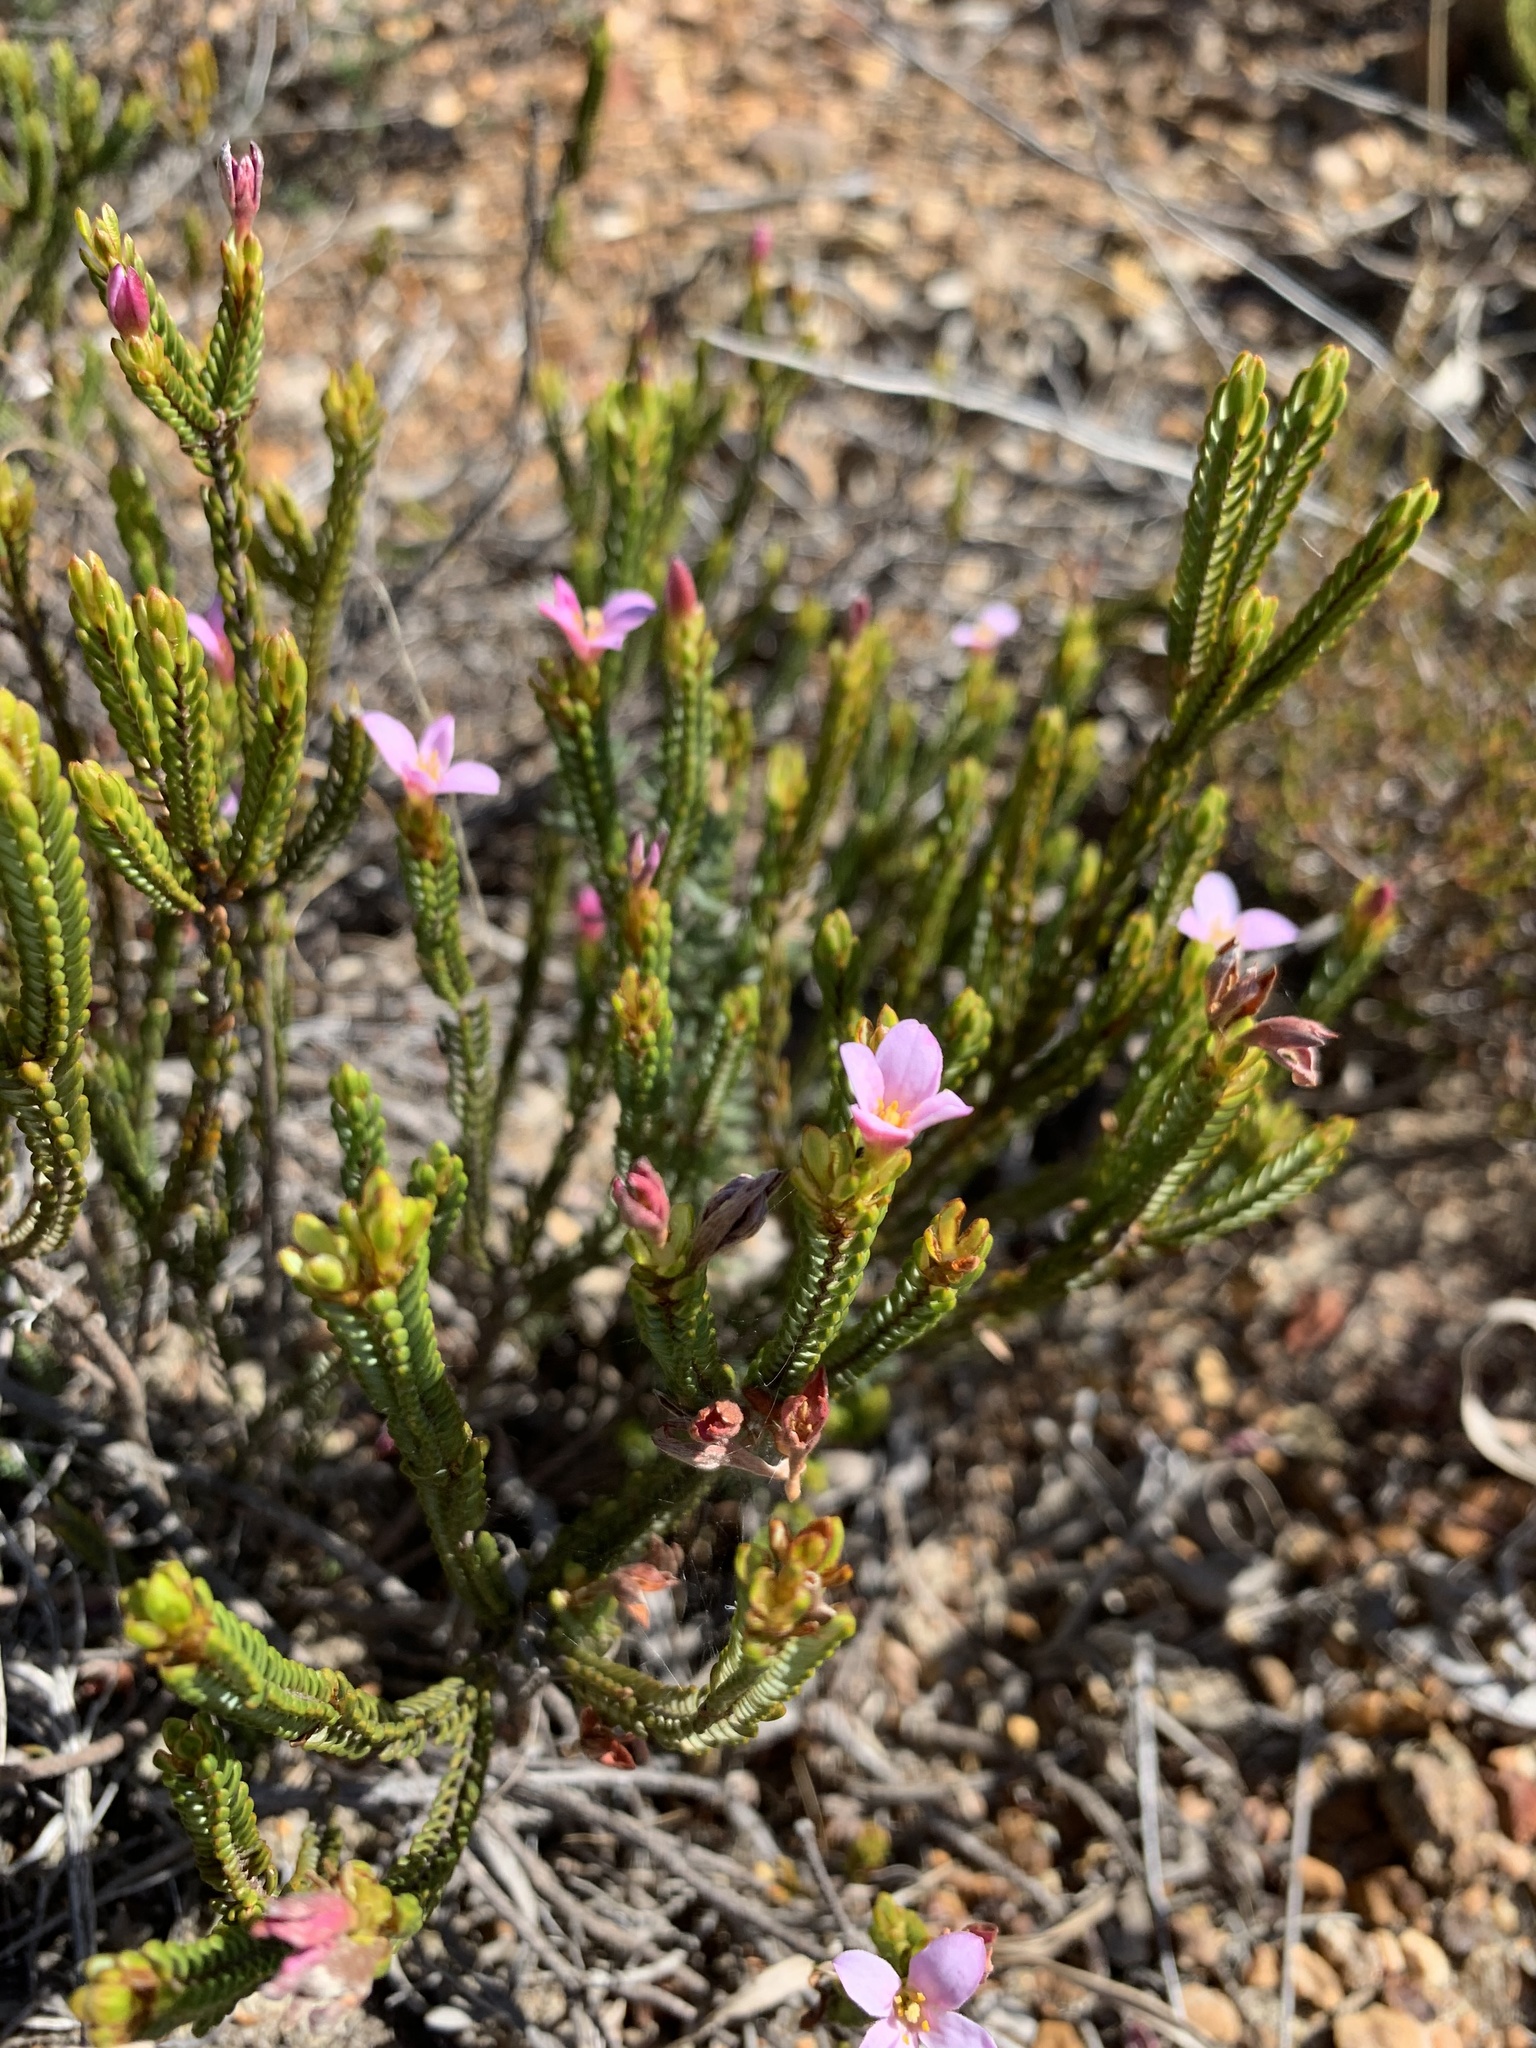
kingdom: Plantae
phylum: Tracheophyta
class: Magnoliopsida
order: Malvales
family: Thymelaeaceae
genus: Lachnaea
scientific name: Lachnaea grandiflora
